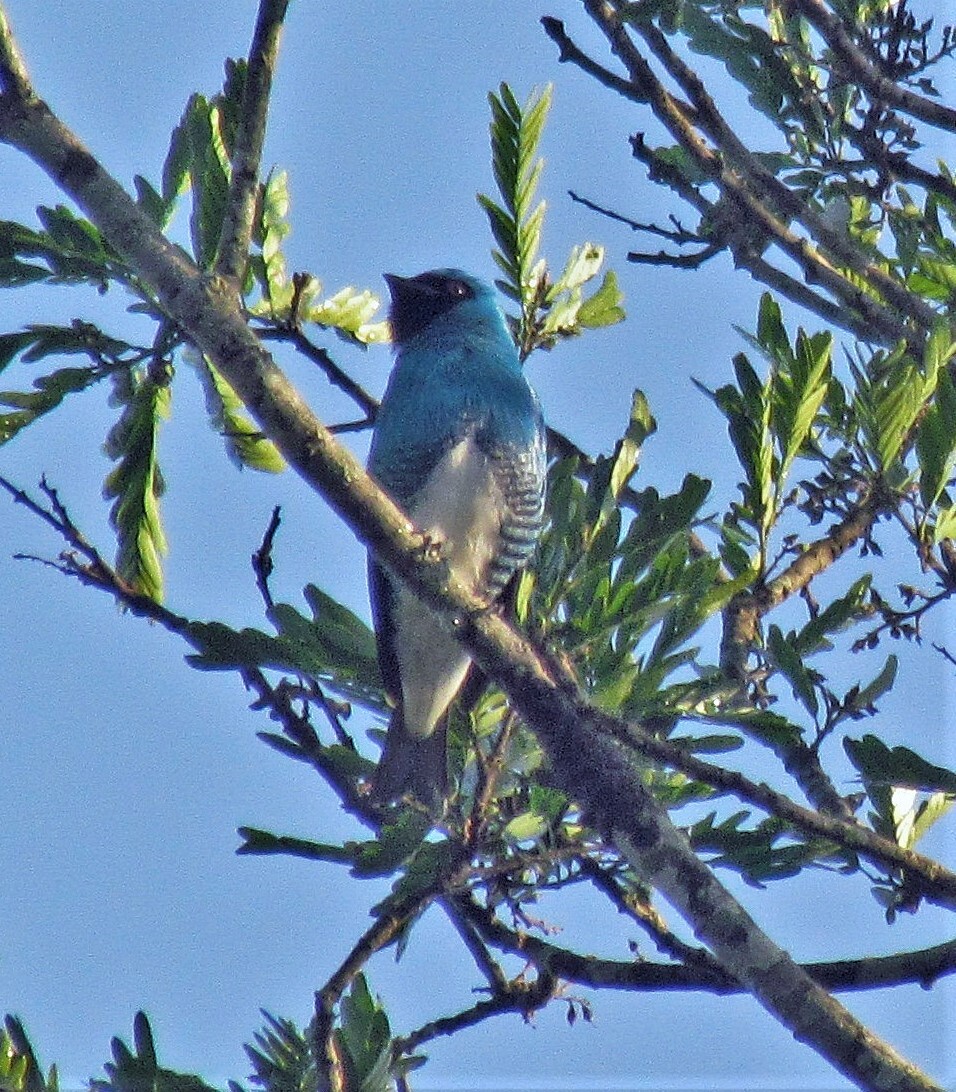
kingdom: Animalia
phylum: Chordata
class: Aves
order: Passeriformes
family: Thraupidae
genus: Tersina
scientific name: Tersina viridis
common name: Swallow tanager
